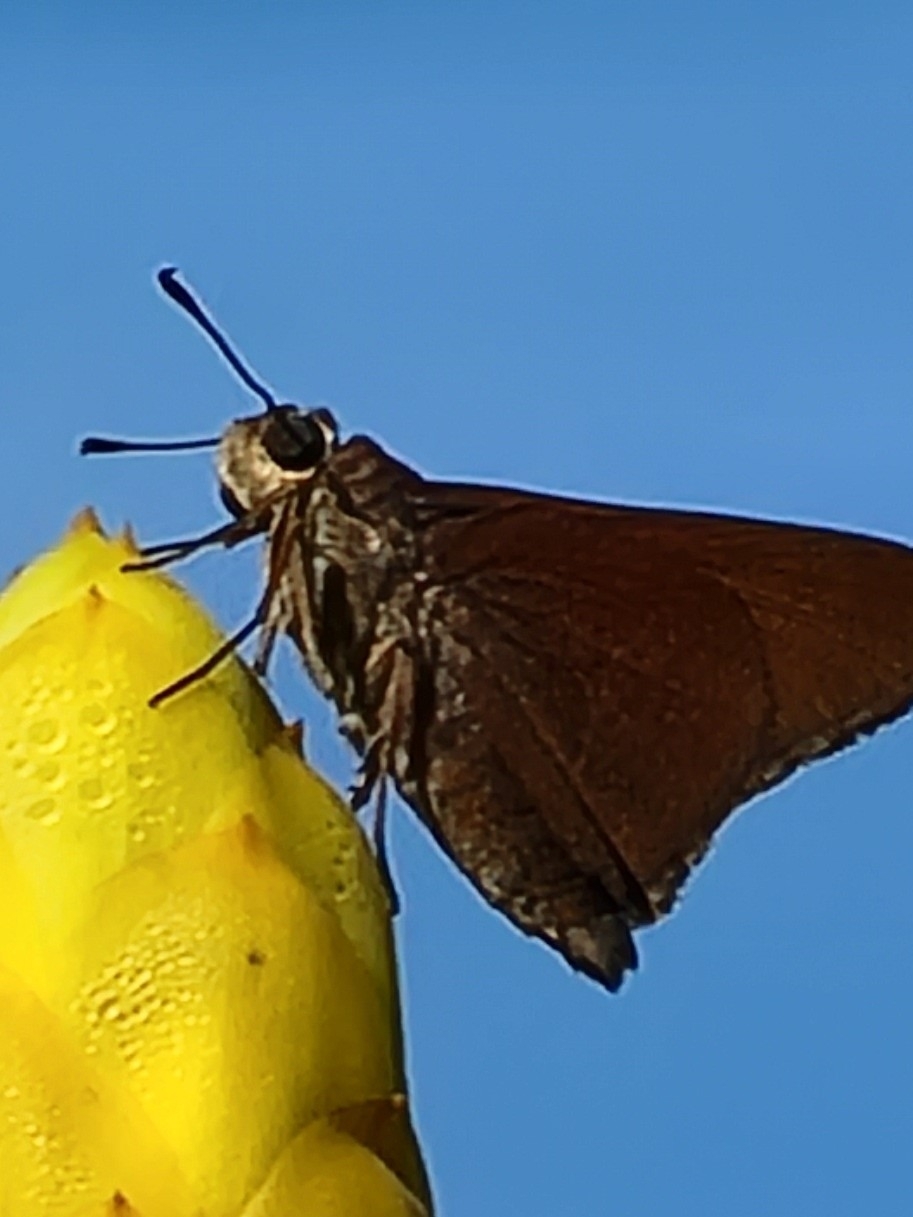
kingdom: Animalia
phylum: Arthropoda
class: Insecta
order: Lepidoptera
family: Hesperiidae
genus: Asbolis
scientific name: Asbolis capucinus
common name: Monk skipper
